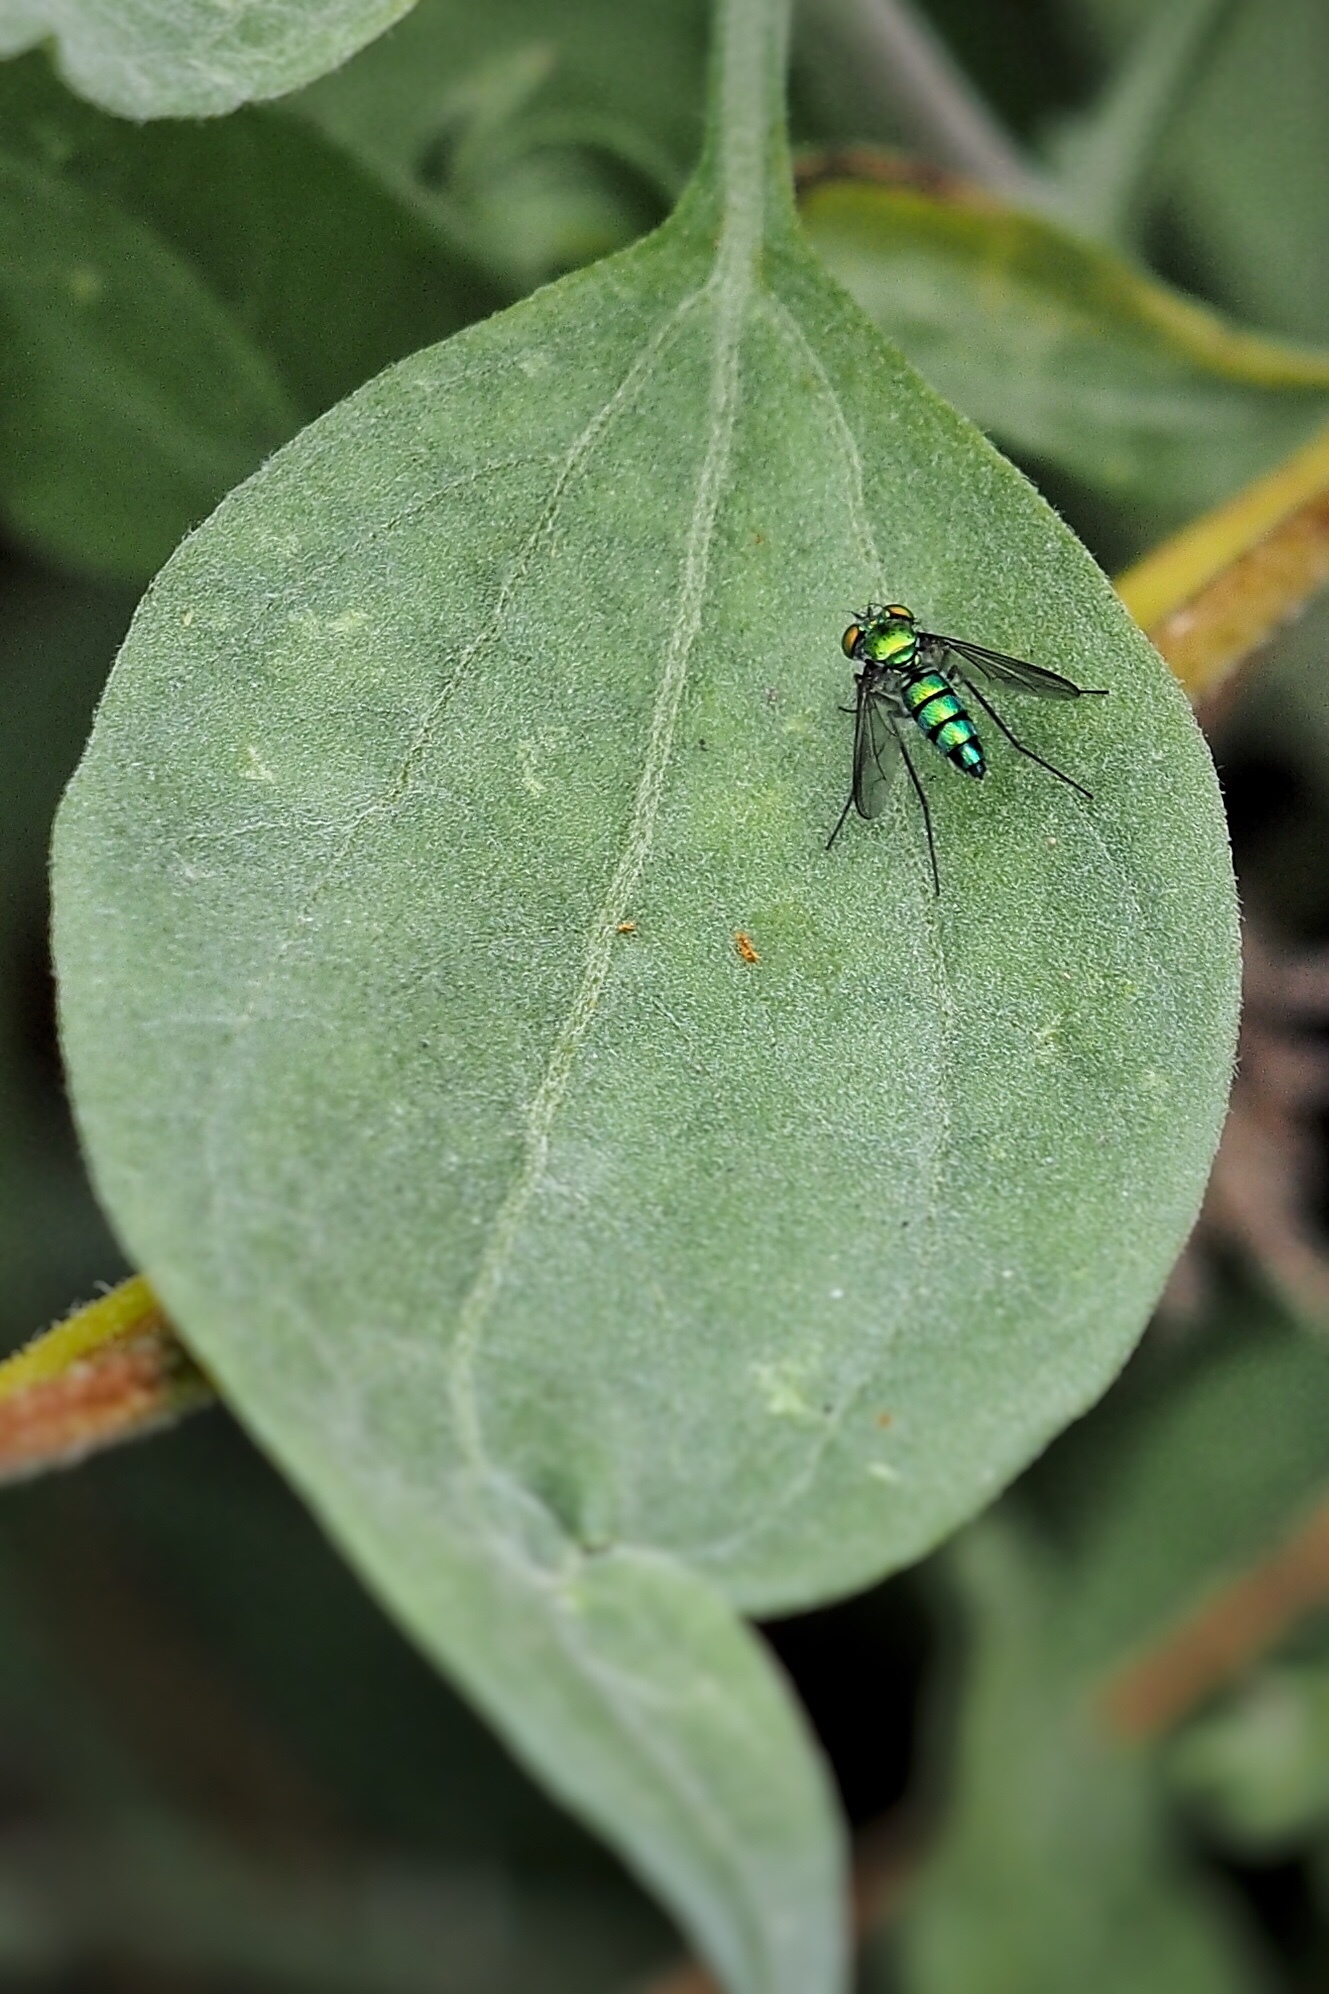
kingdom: Animalia
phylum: Arthropoda
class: Insecta
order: Diptera
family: Dolichopodidae
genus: Condylostylus
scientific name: Condylostylus longicornis
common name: Long-legged fly
